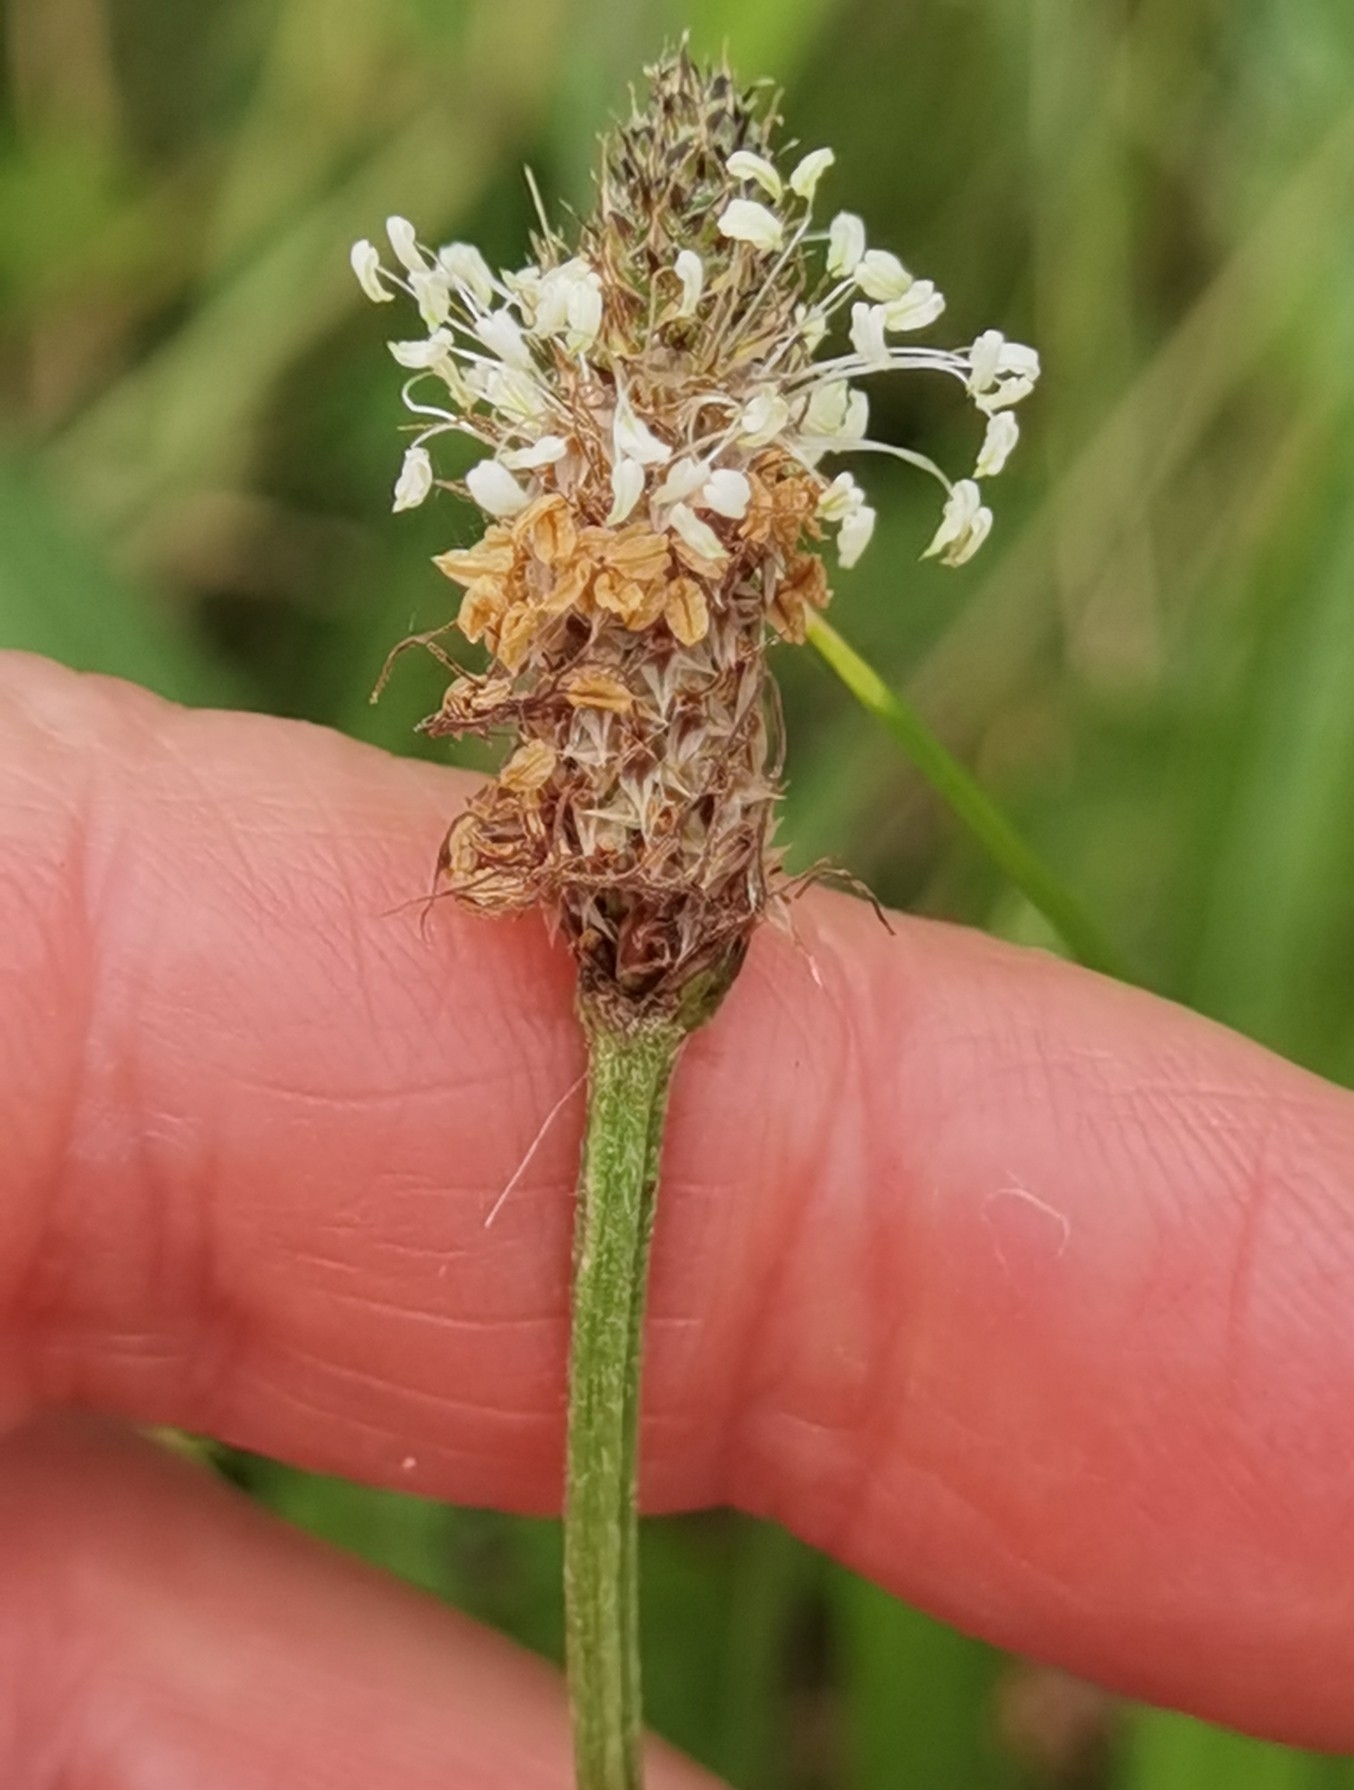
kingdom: Plantae
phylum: Tracheophyta
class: Magnoliopsida
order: Lamiales
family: Plantaginaceae
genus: Plantago
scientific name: Plantago lanceolata
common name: Ribwort plantain
